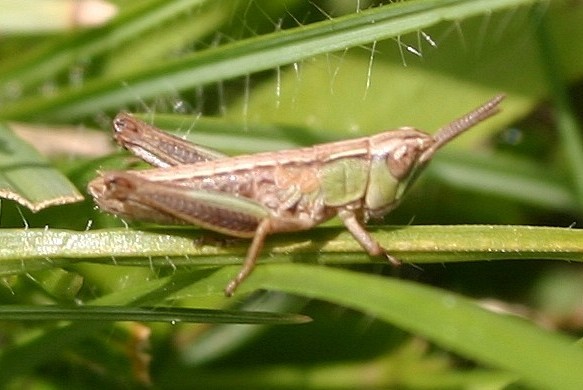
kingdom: Animalia
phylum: Arthropoda
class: Insecta
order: Orthoptera
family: Acrididae
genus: Chorthippus
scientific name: Chorthippus albomarginatus
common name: Lesser marsh grasshopper
